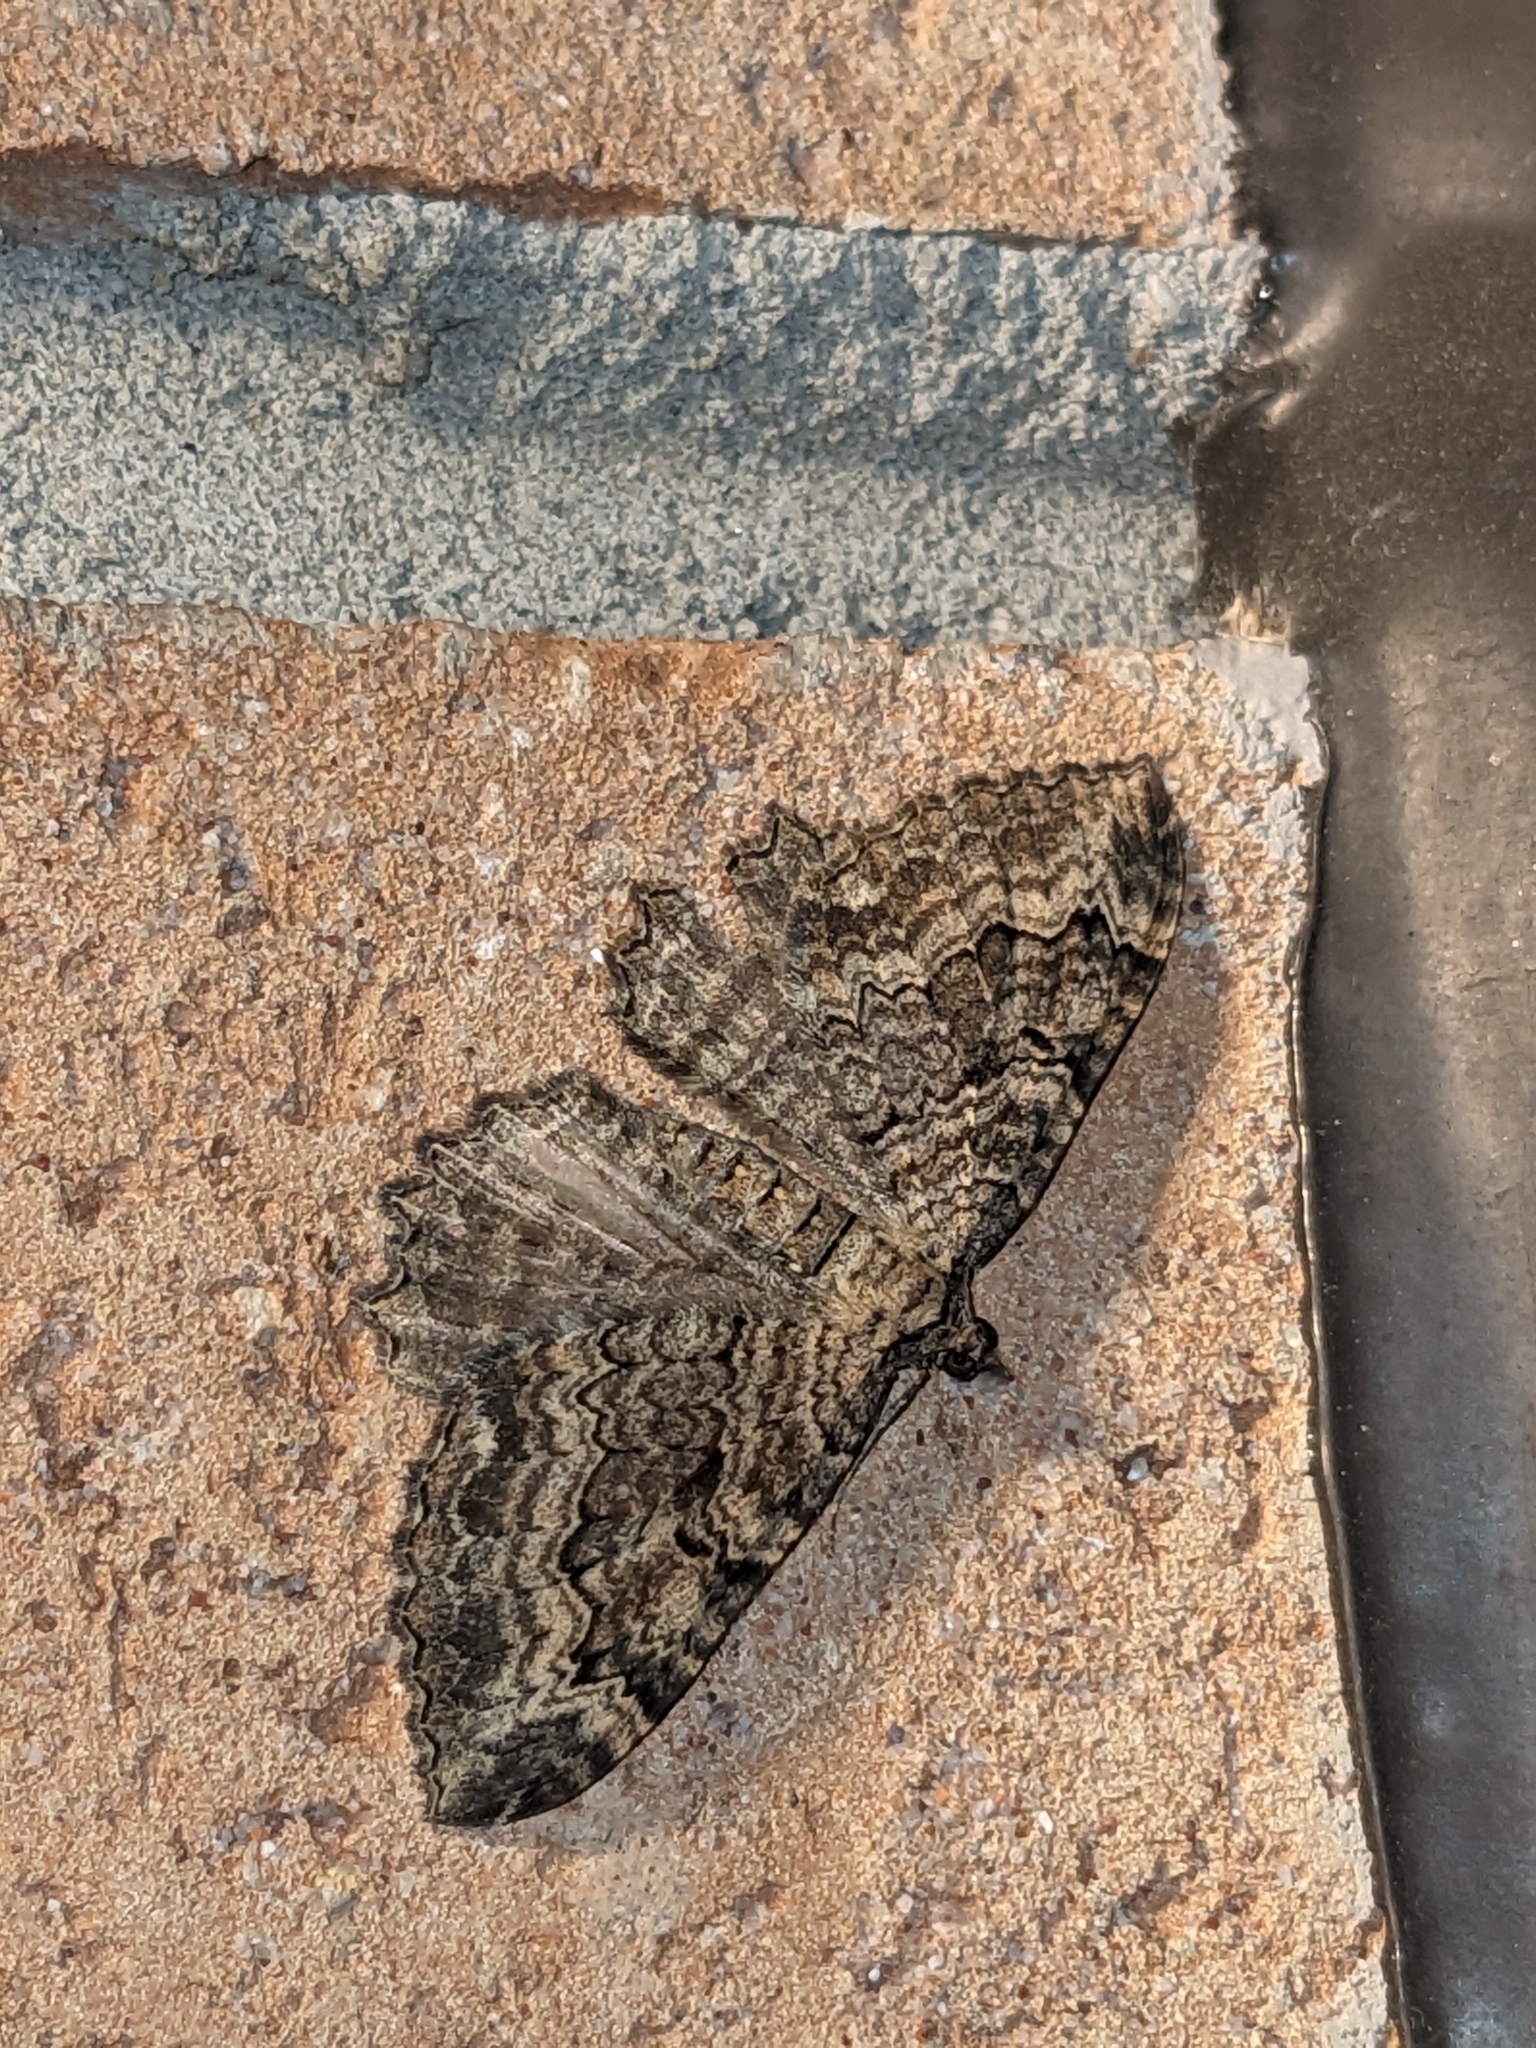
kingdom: Animalia
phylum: Arthropoda
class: Insecta
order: Lepidoptera
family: Geometridae
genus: Rheumaptera
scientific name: Rheumaptera
